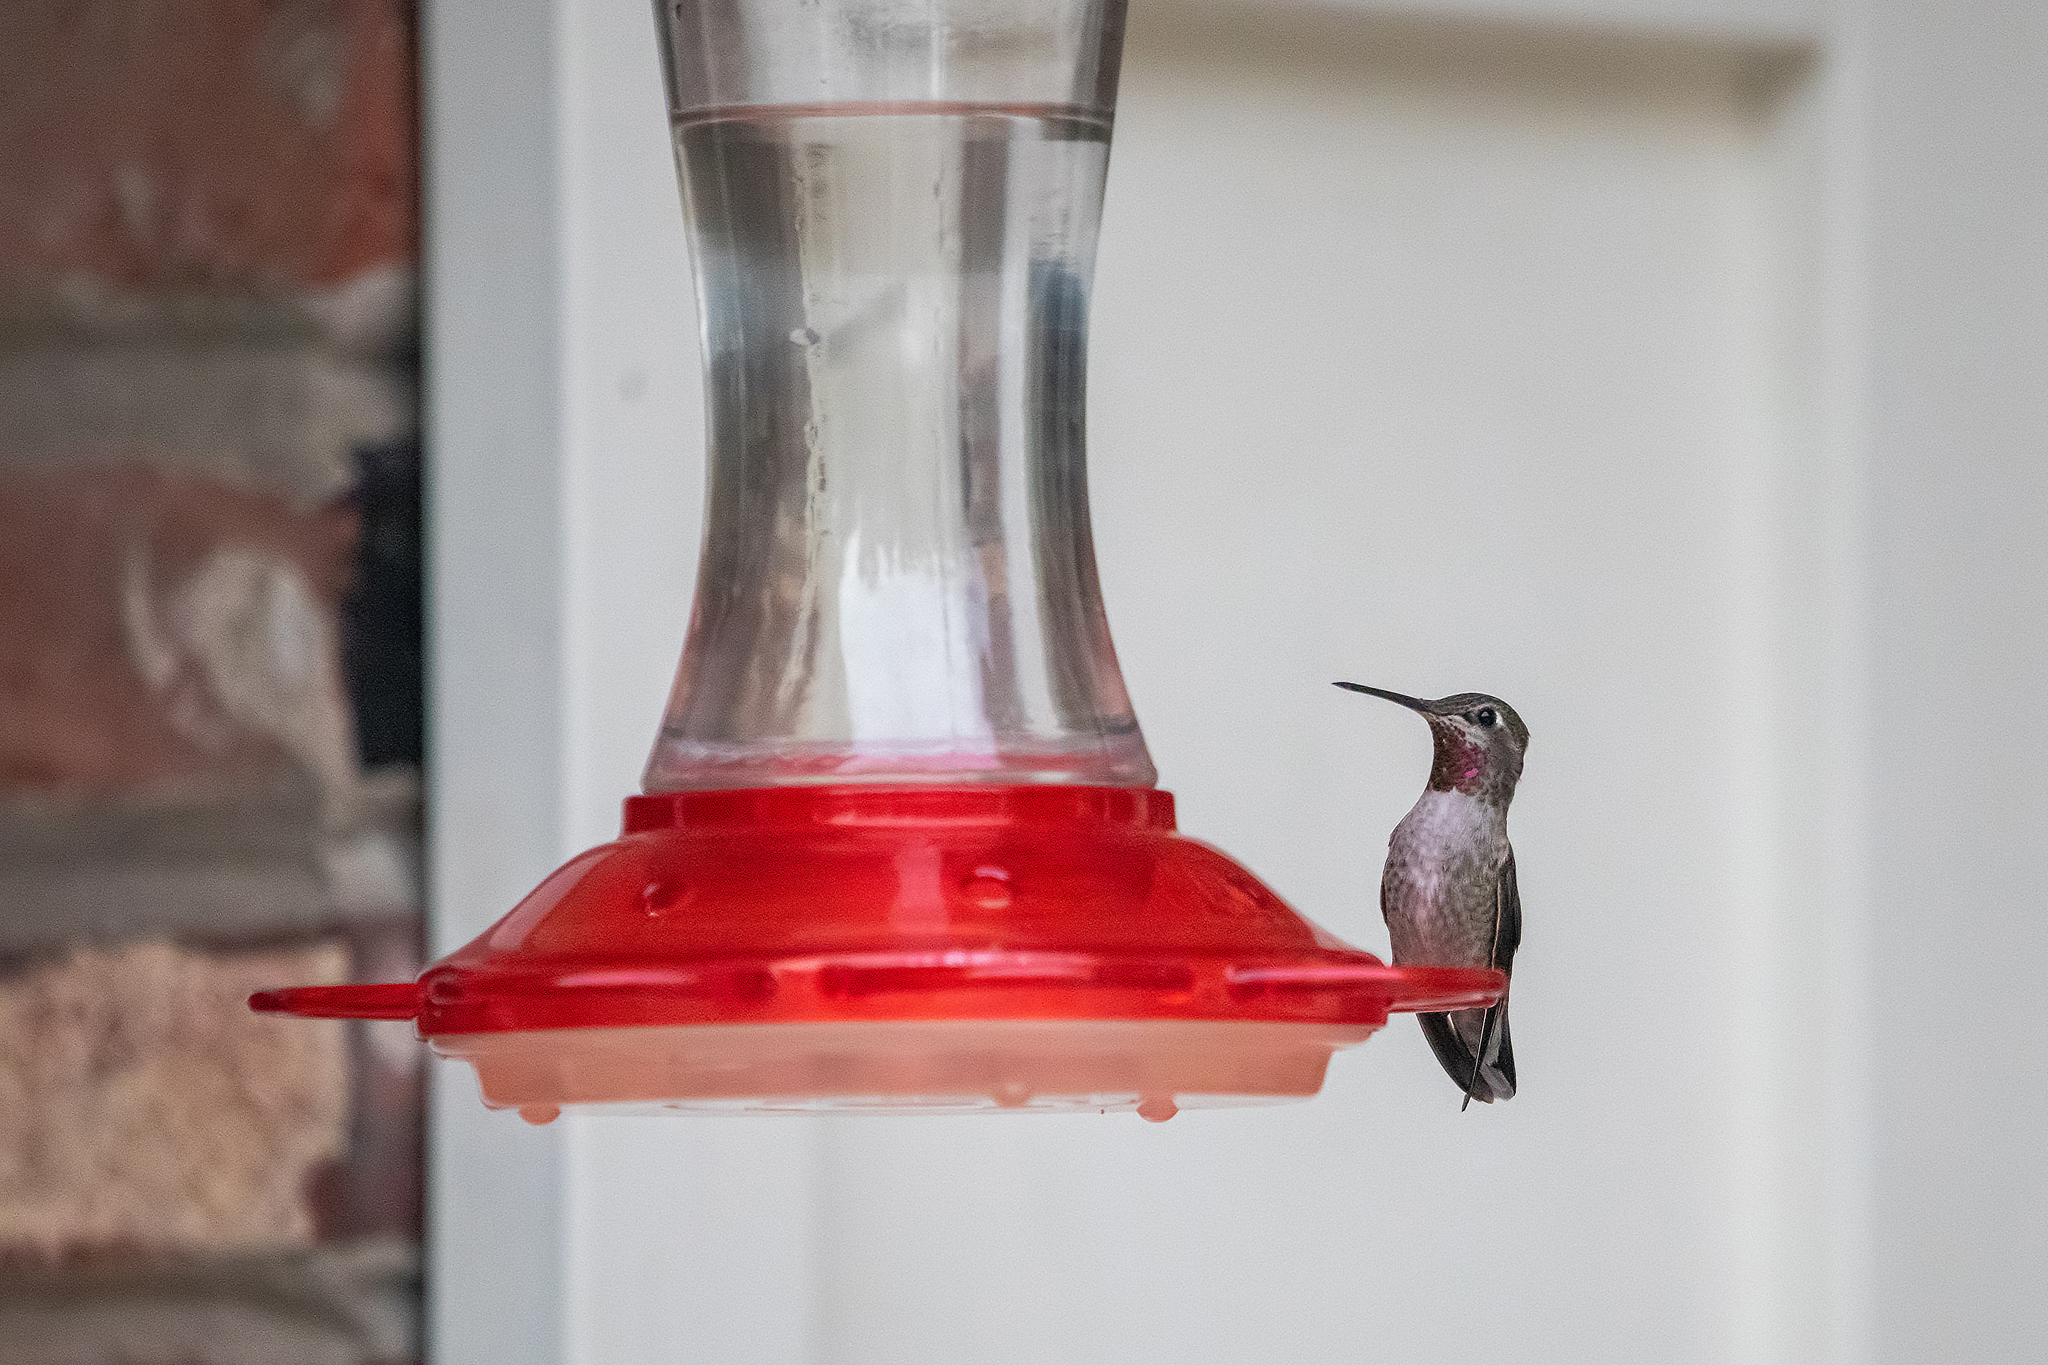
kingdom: Animalia
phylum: Chordata
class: Aves
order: Apodiformes
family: Trochilidae
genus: Calypte
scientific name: Calypte anna
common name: Anna's hummingbird
